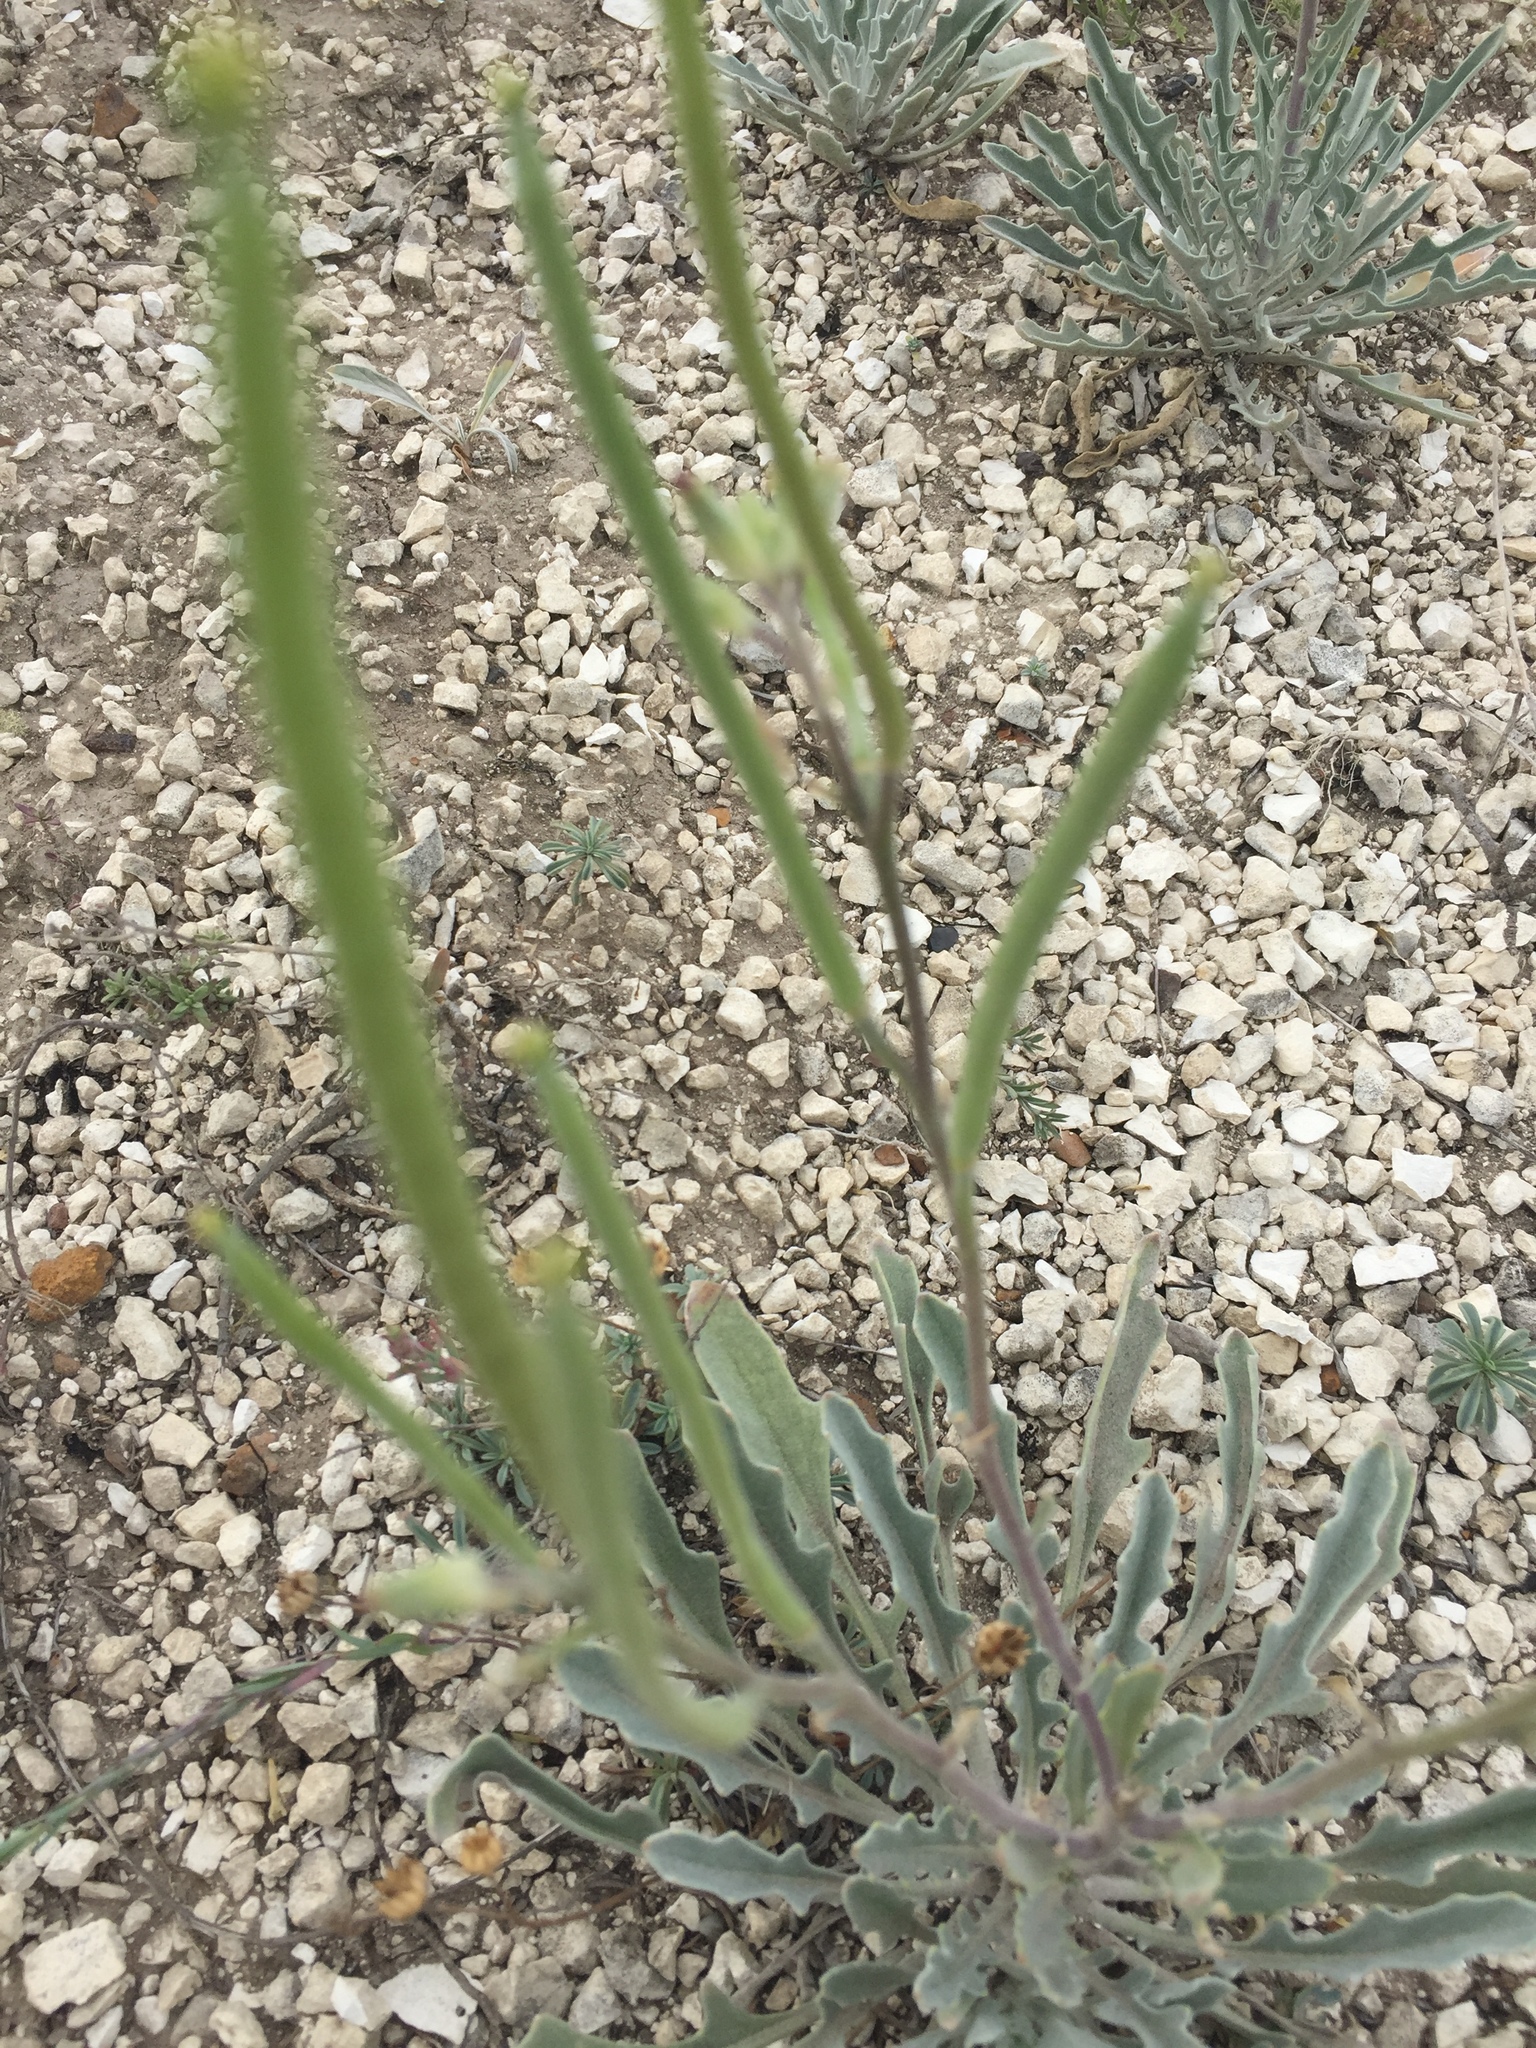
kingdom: Plantae
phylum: Tracheophyta
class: Magnoliopsida
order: Brassicales
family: Brassicaceae
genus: Matthiola
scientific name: Matthiola fragrans
